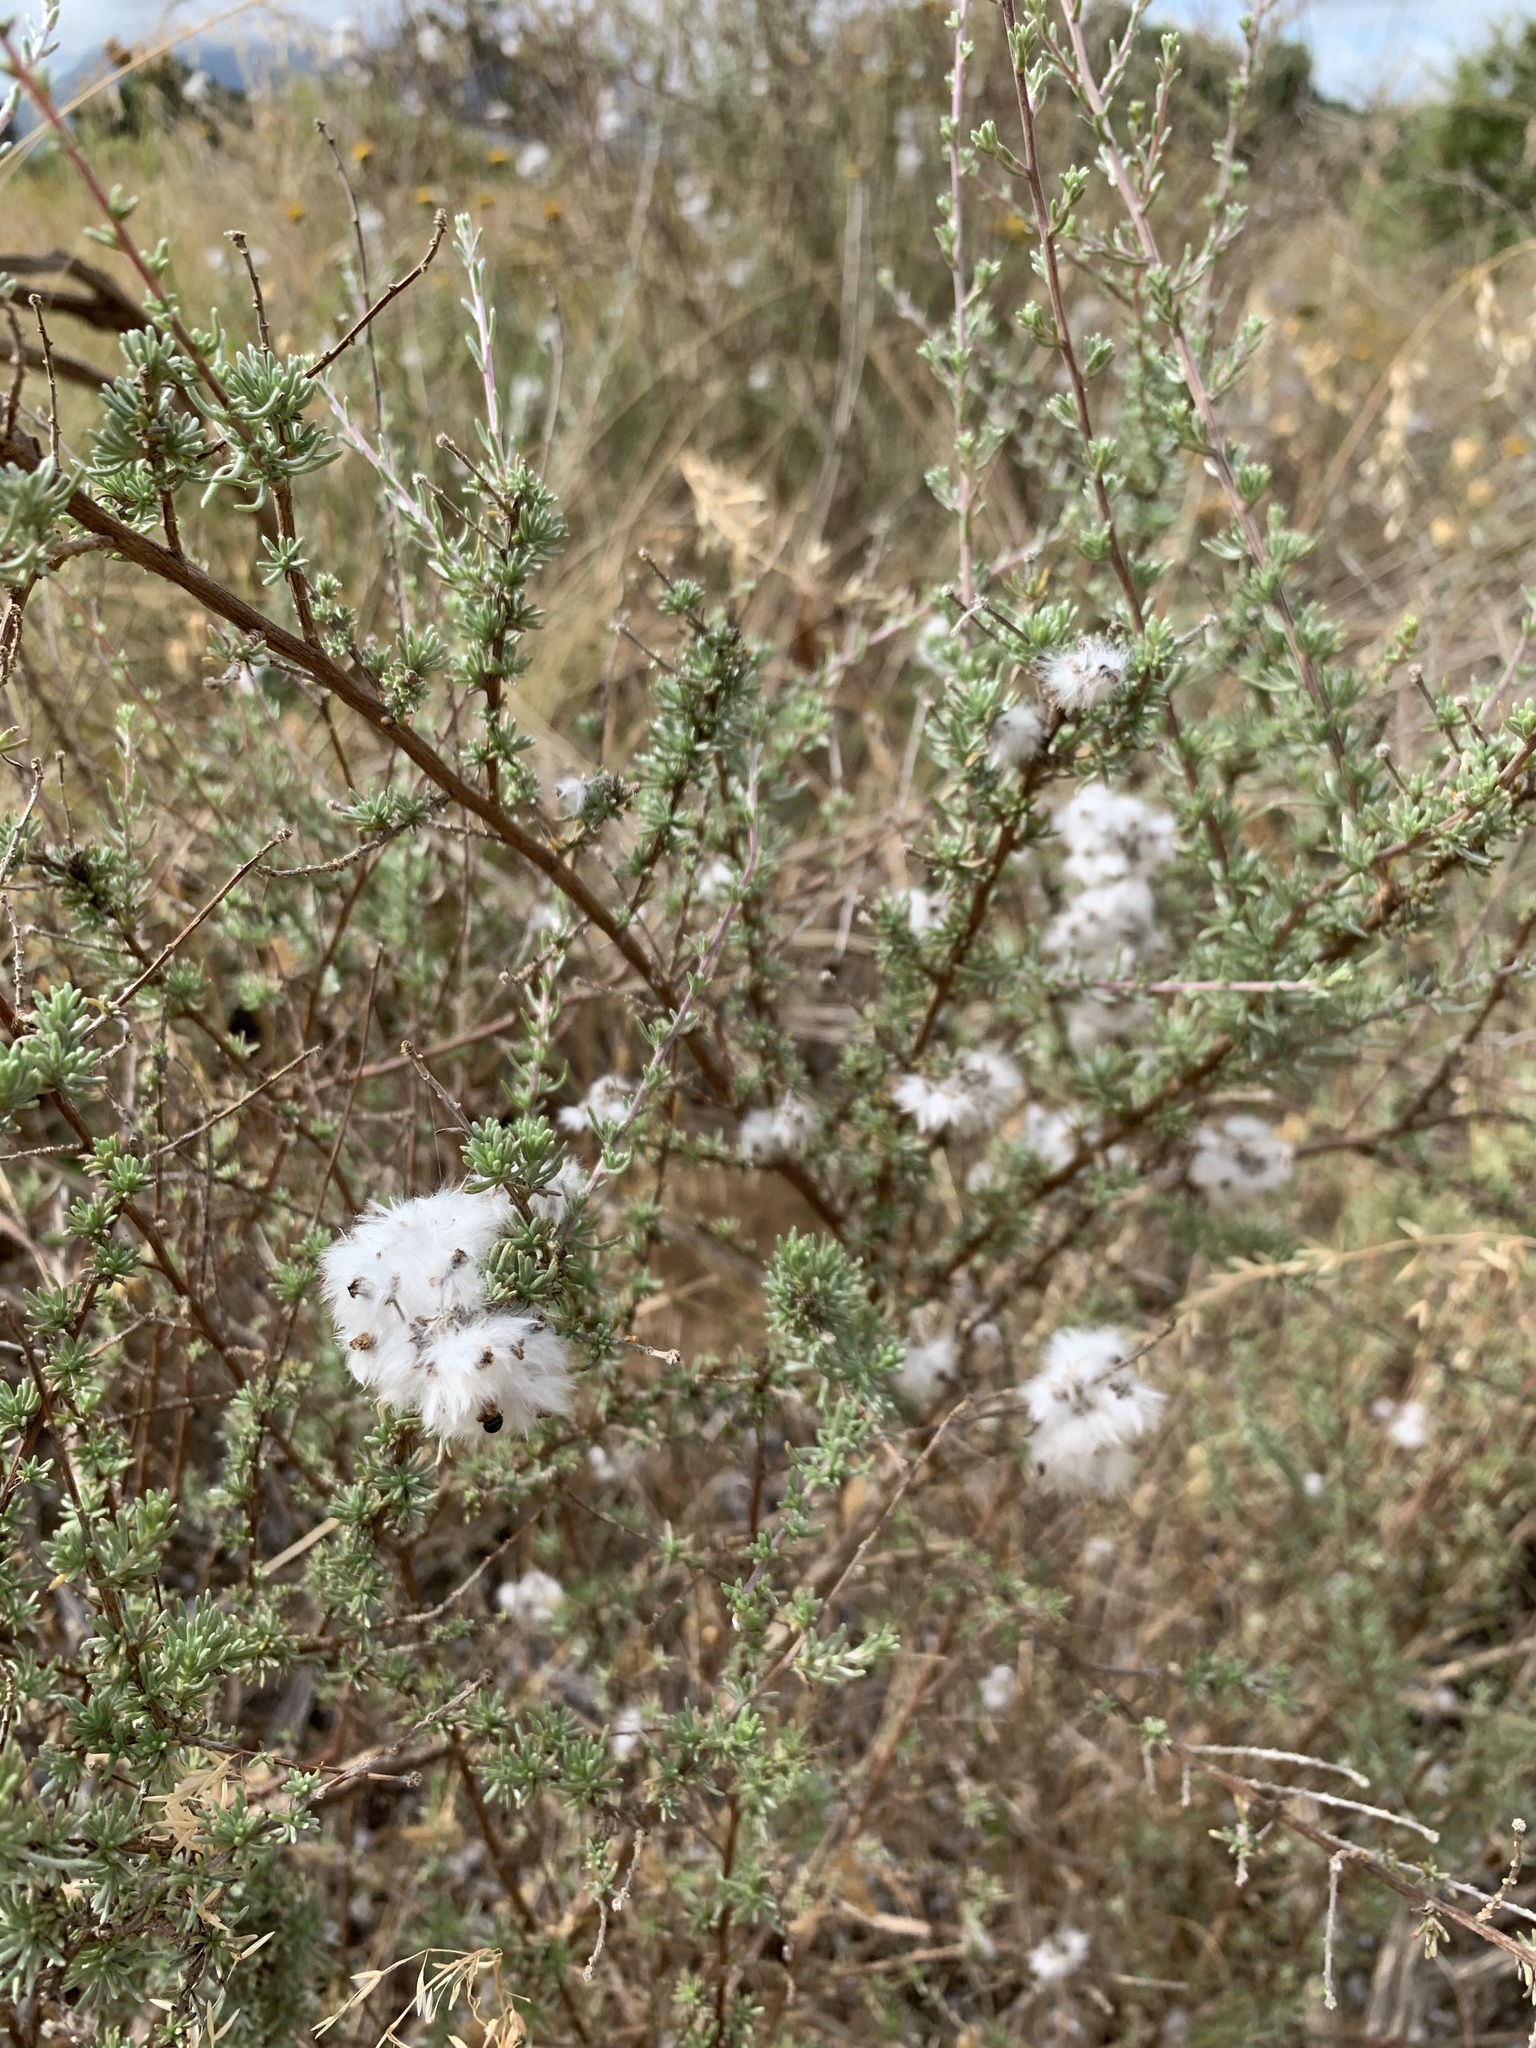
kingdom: Plantae
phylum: Tracheophyta
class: Magnoliopsida
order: Asterales
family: Asteraceae
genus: Eriocephalus
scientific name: Eriocephalus africanus
